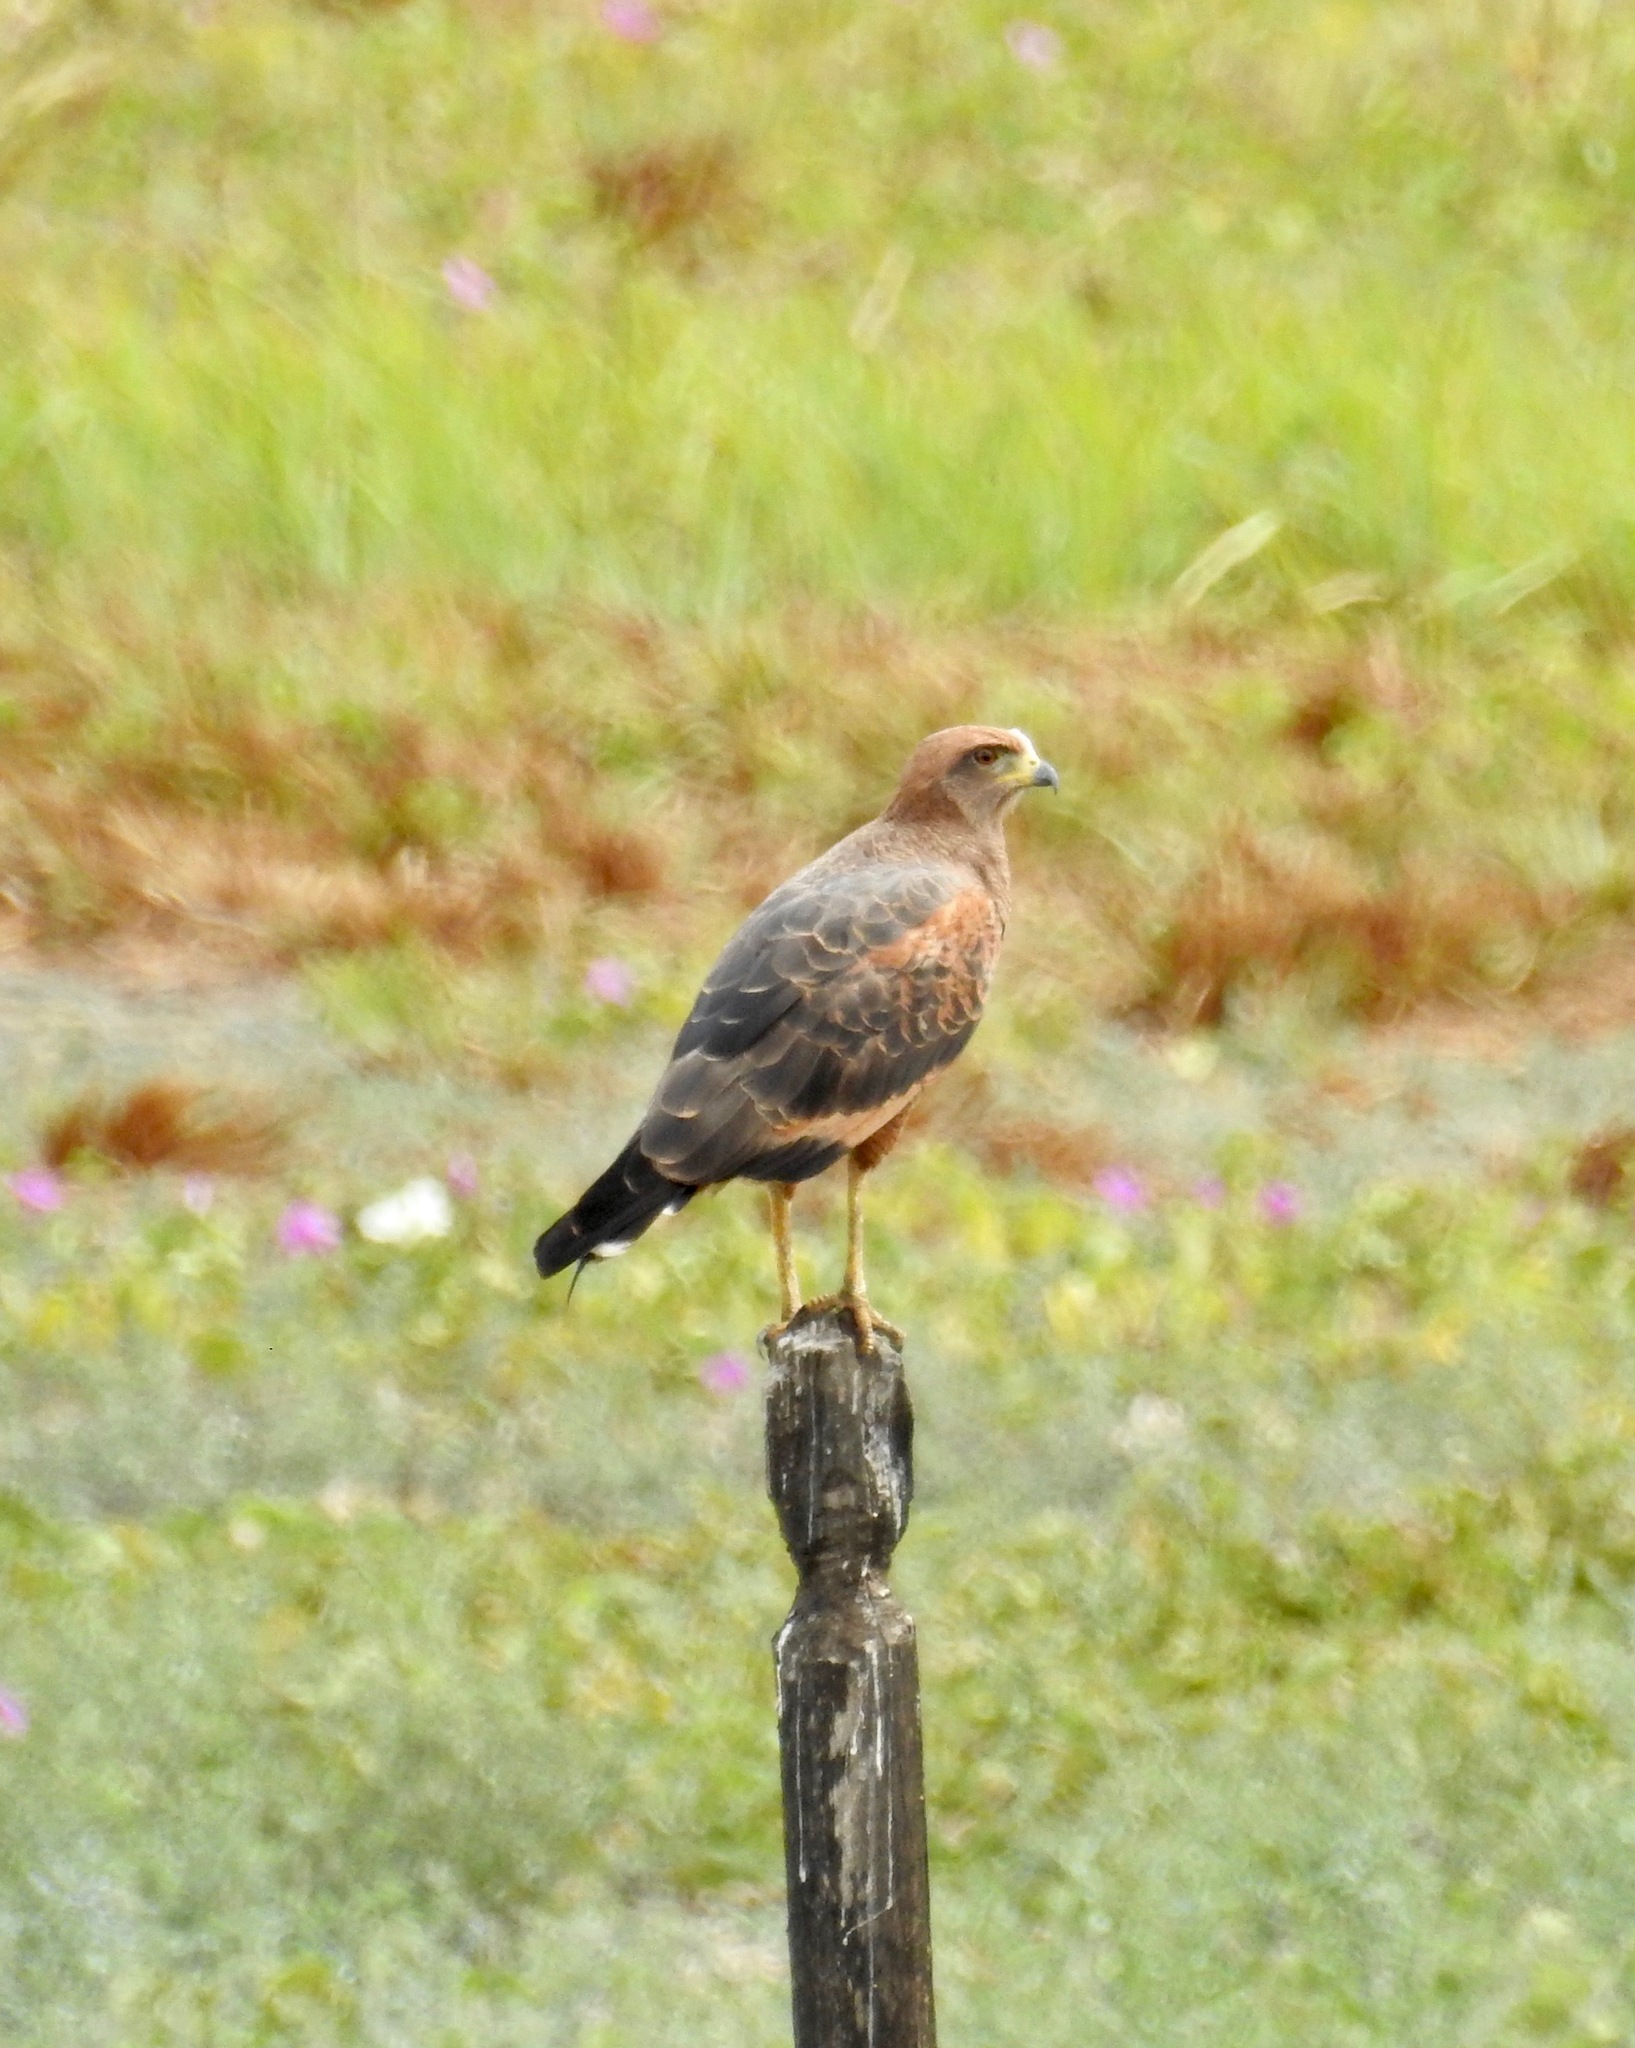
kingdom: Animalia
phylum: Chordata
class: Aves
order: Accipitriformes
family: Accipitridae
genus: Buteogallus
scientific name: Buteogallus meridionalis
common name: Savanna hawk
